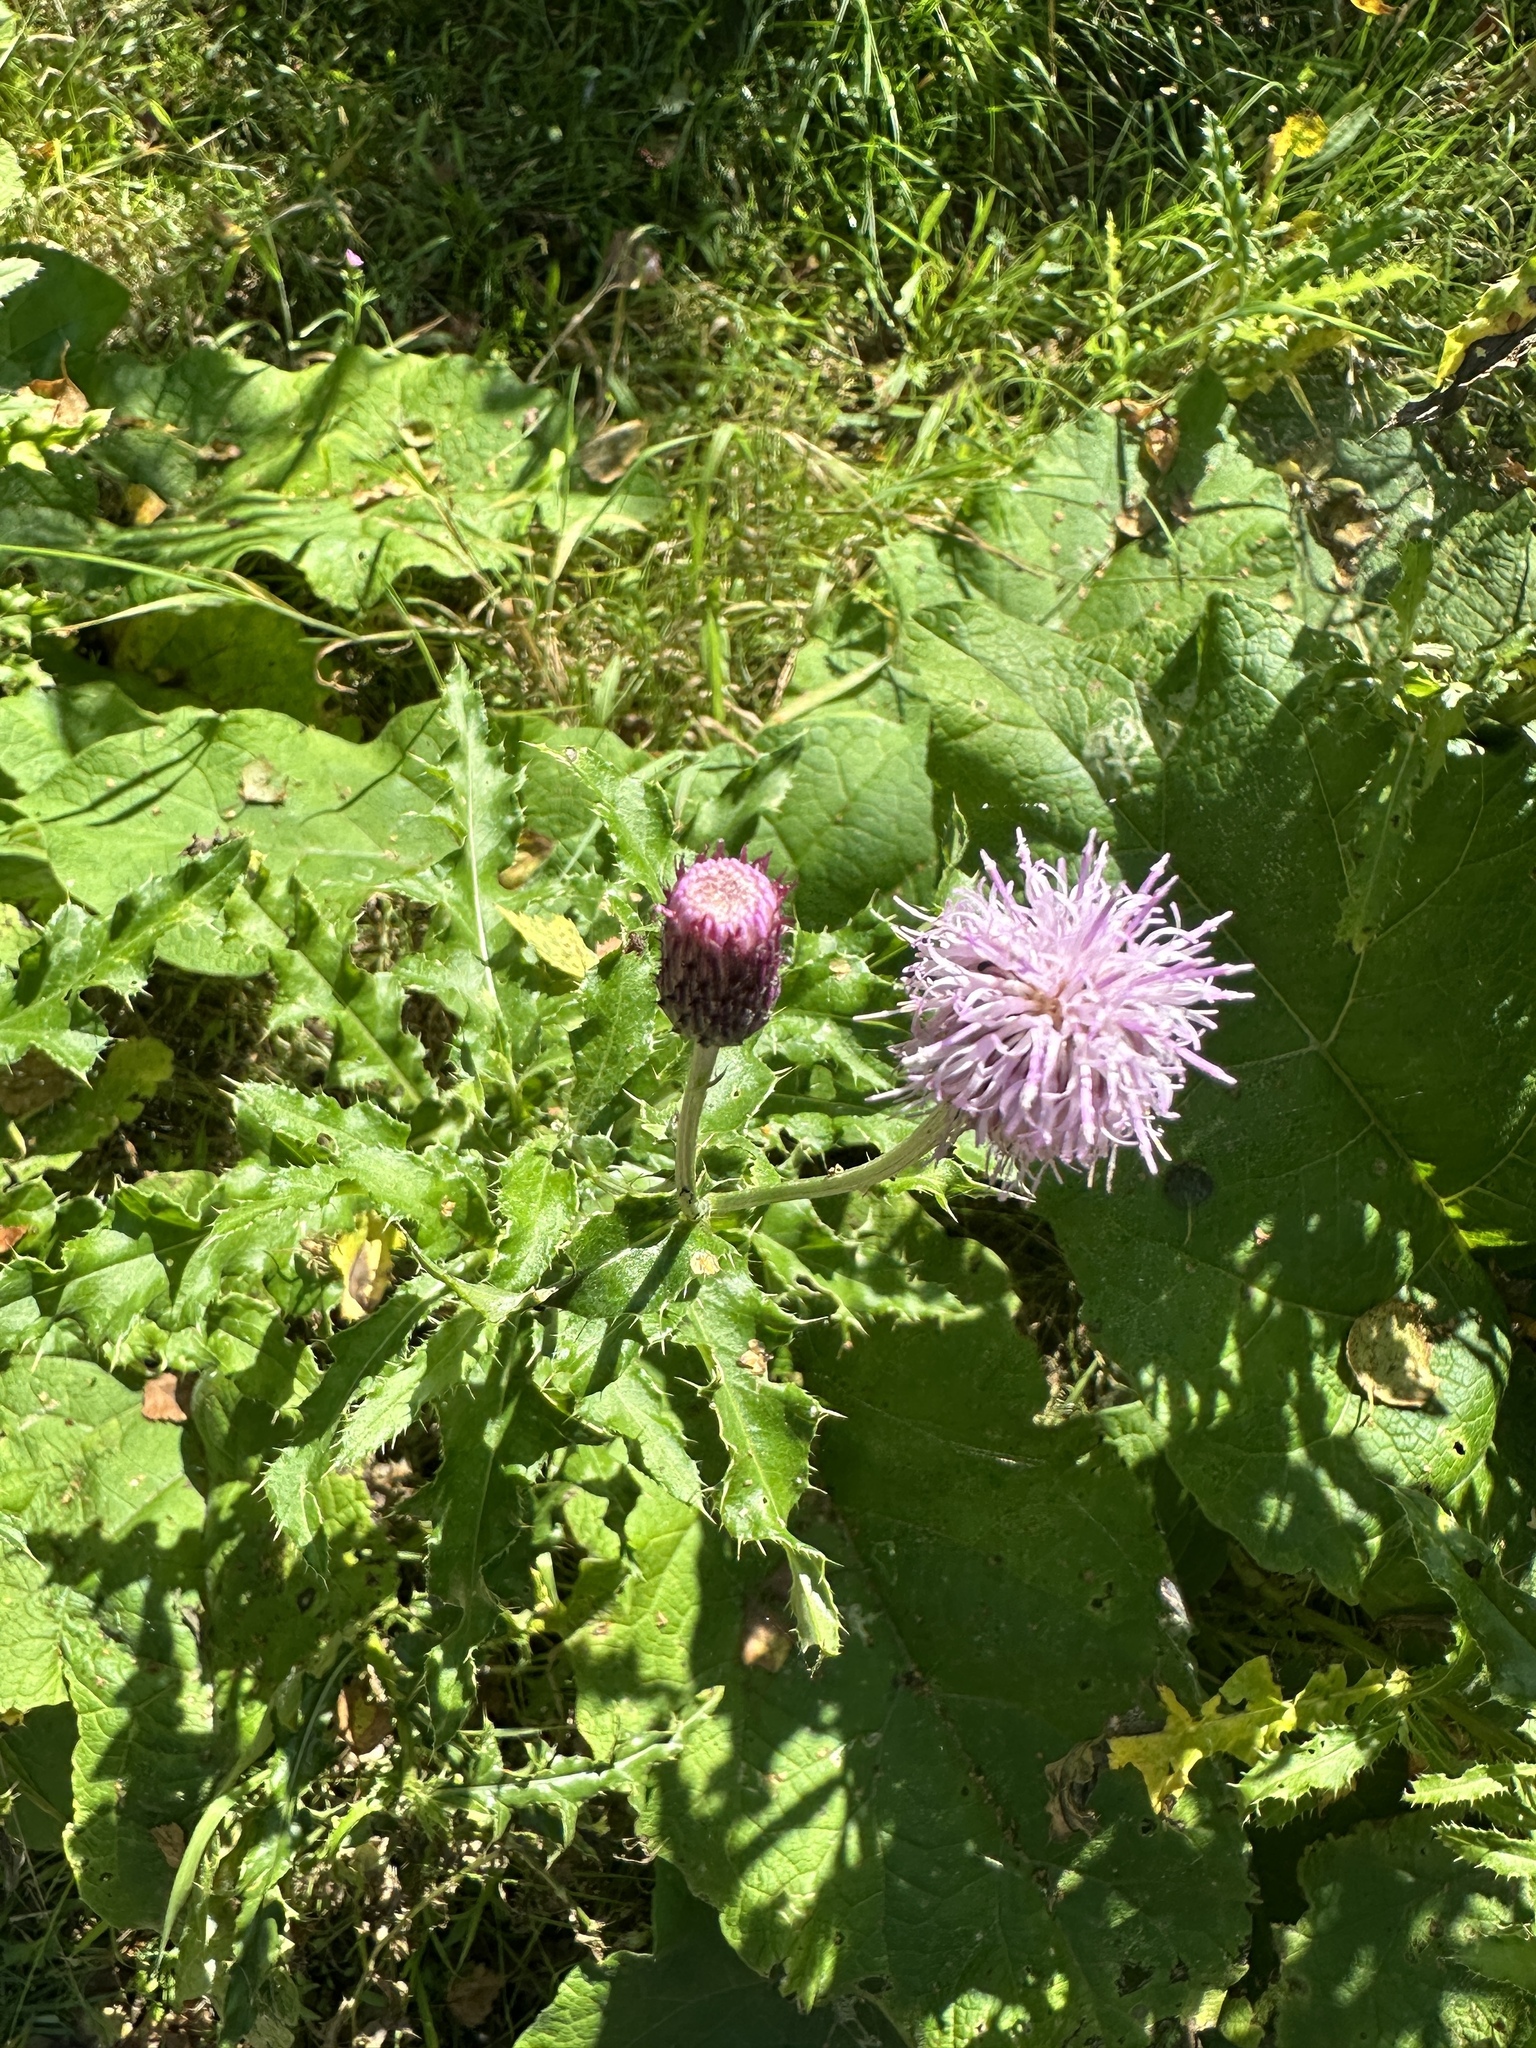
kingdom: Plantae
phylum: Tracheophyta
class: Magnoliopsida
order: Asterales
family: Asteraceae
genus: Cirsium
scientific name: Cirsium arvense
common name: Creeping thistle
